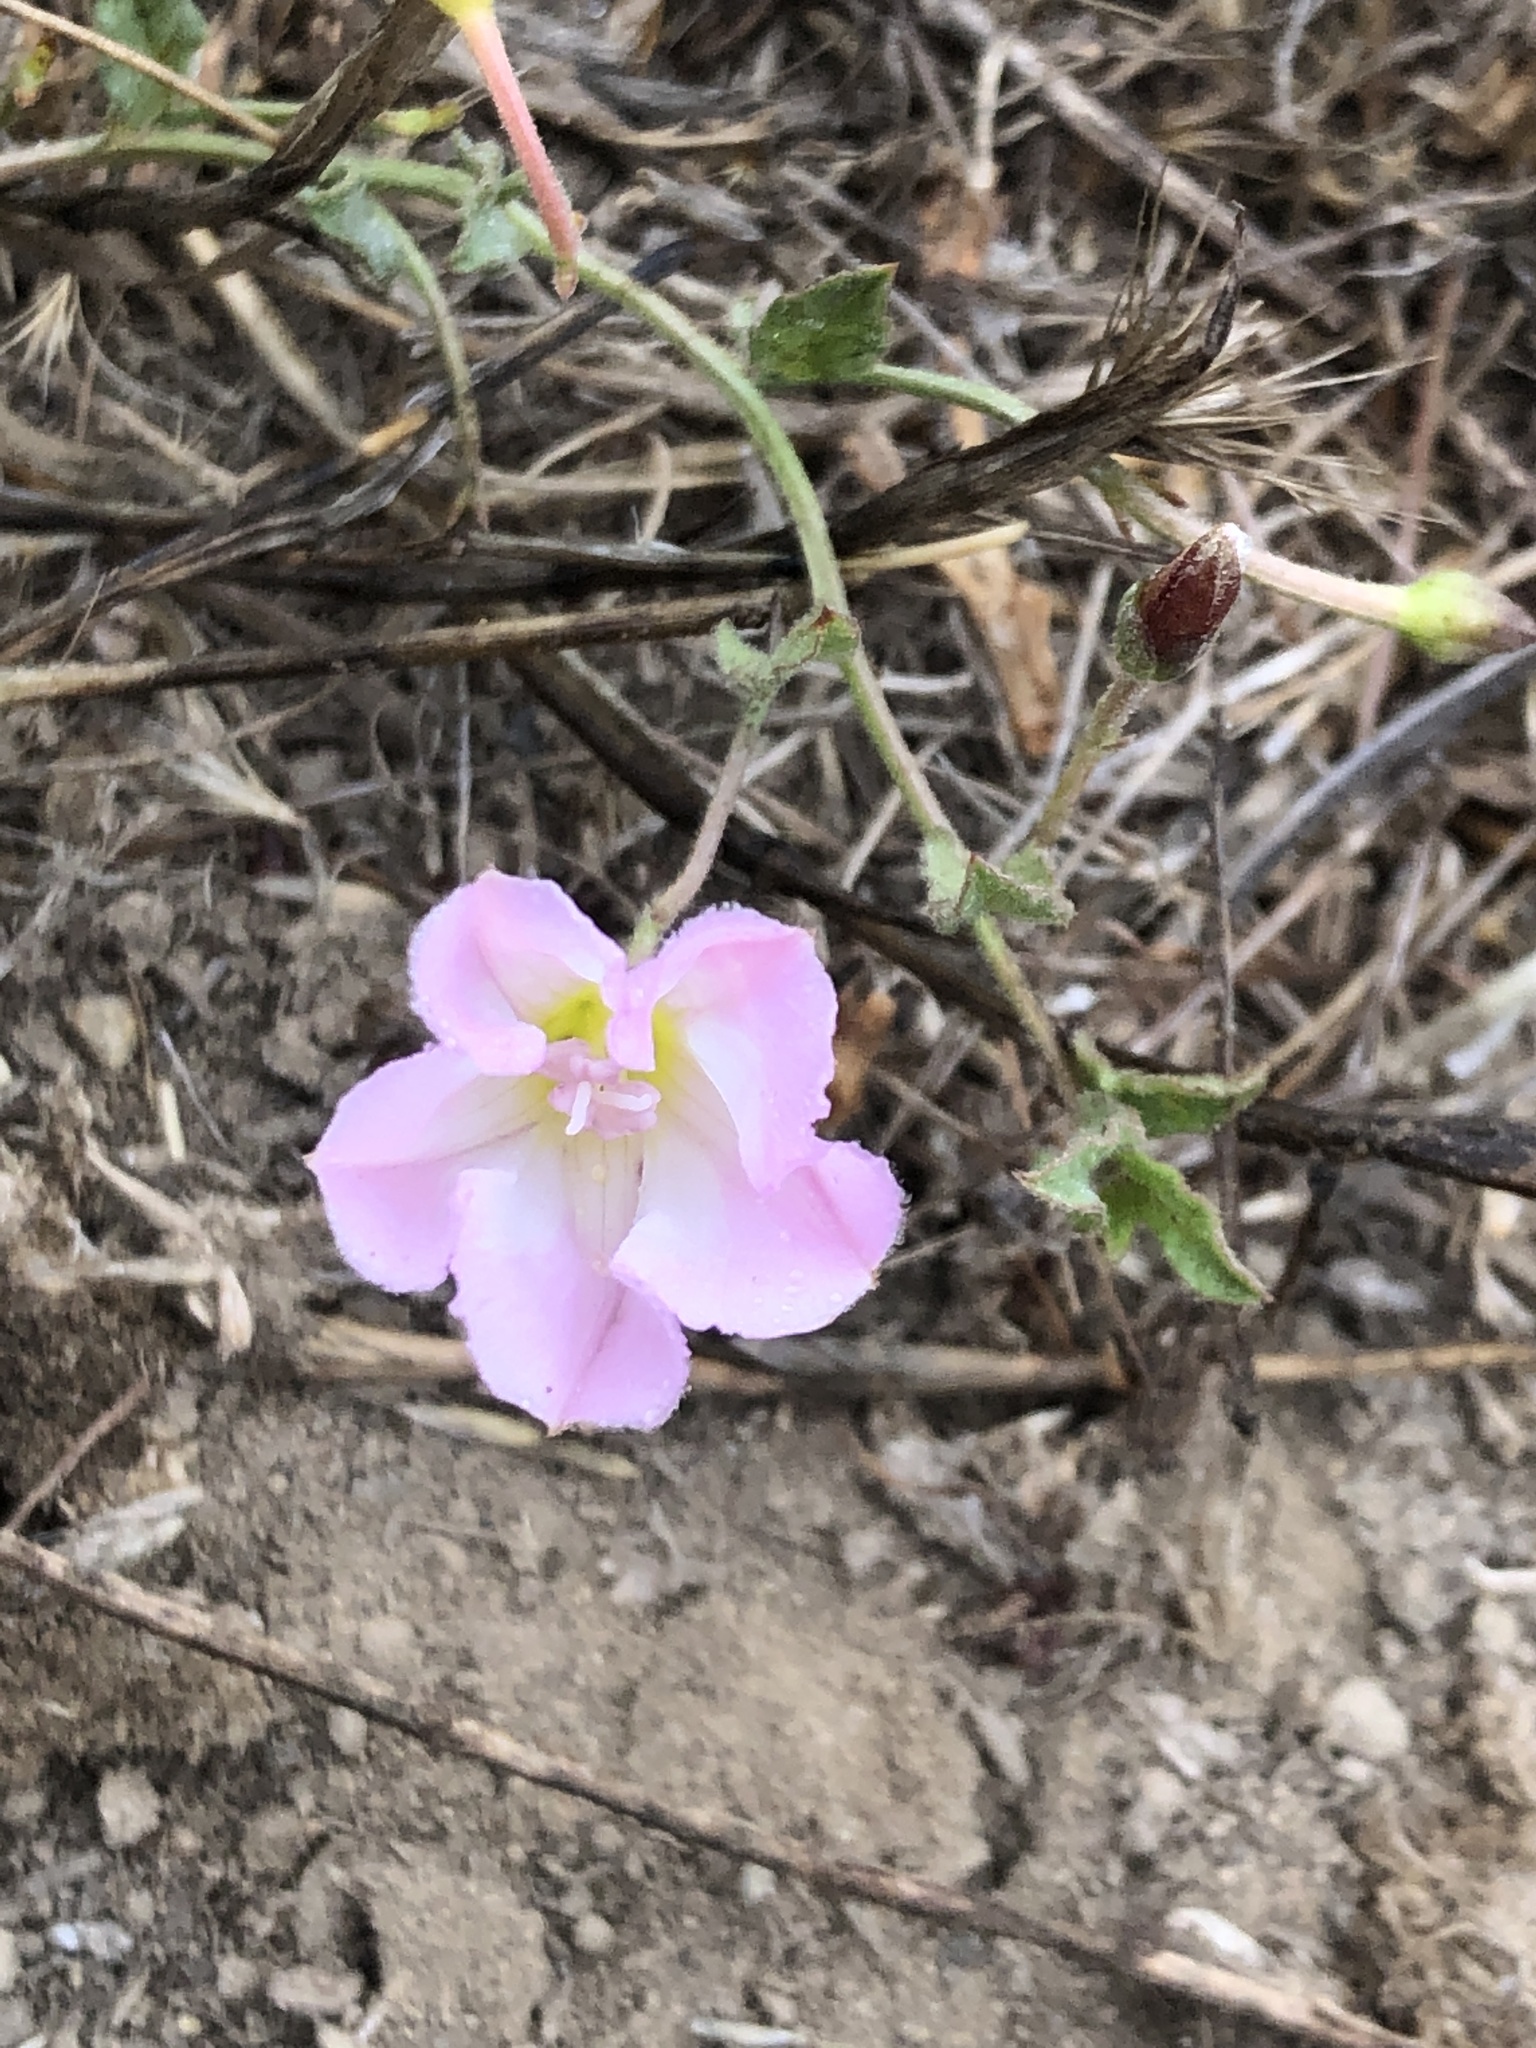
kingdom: Plantae
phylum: Tracheophyta
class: Magnoliopsida
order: Solanales
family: Convolvulaceae
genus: Convolvulus
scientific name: Convolvulus arvensis
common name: Field bindweed
